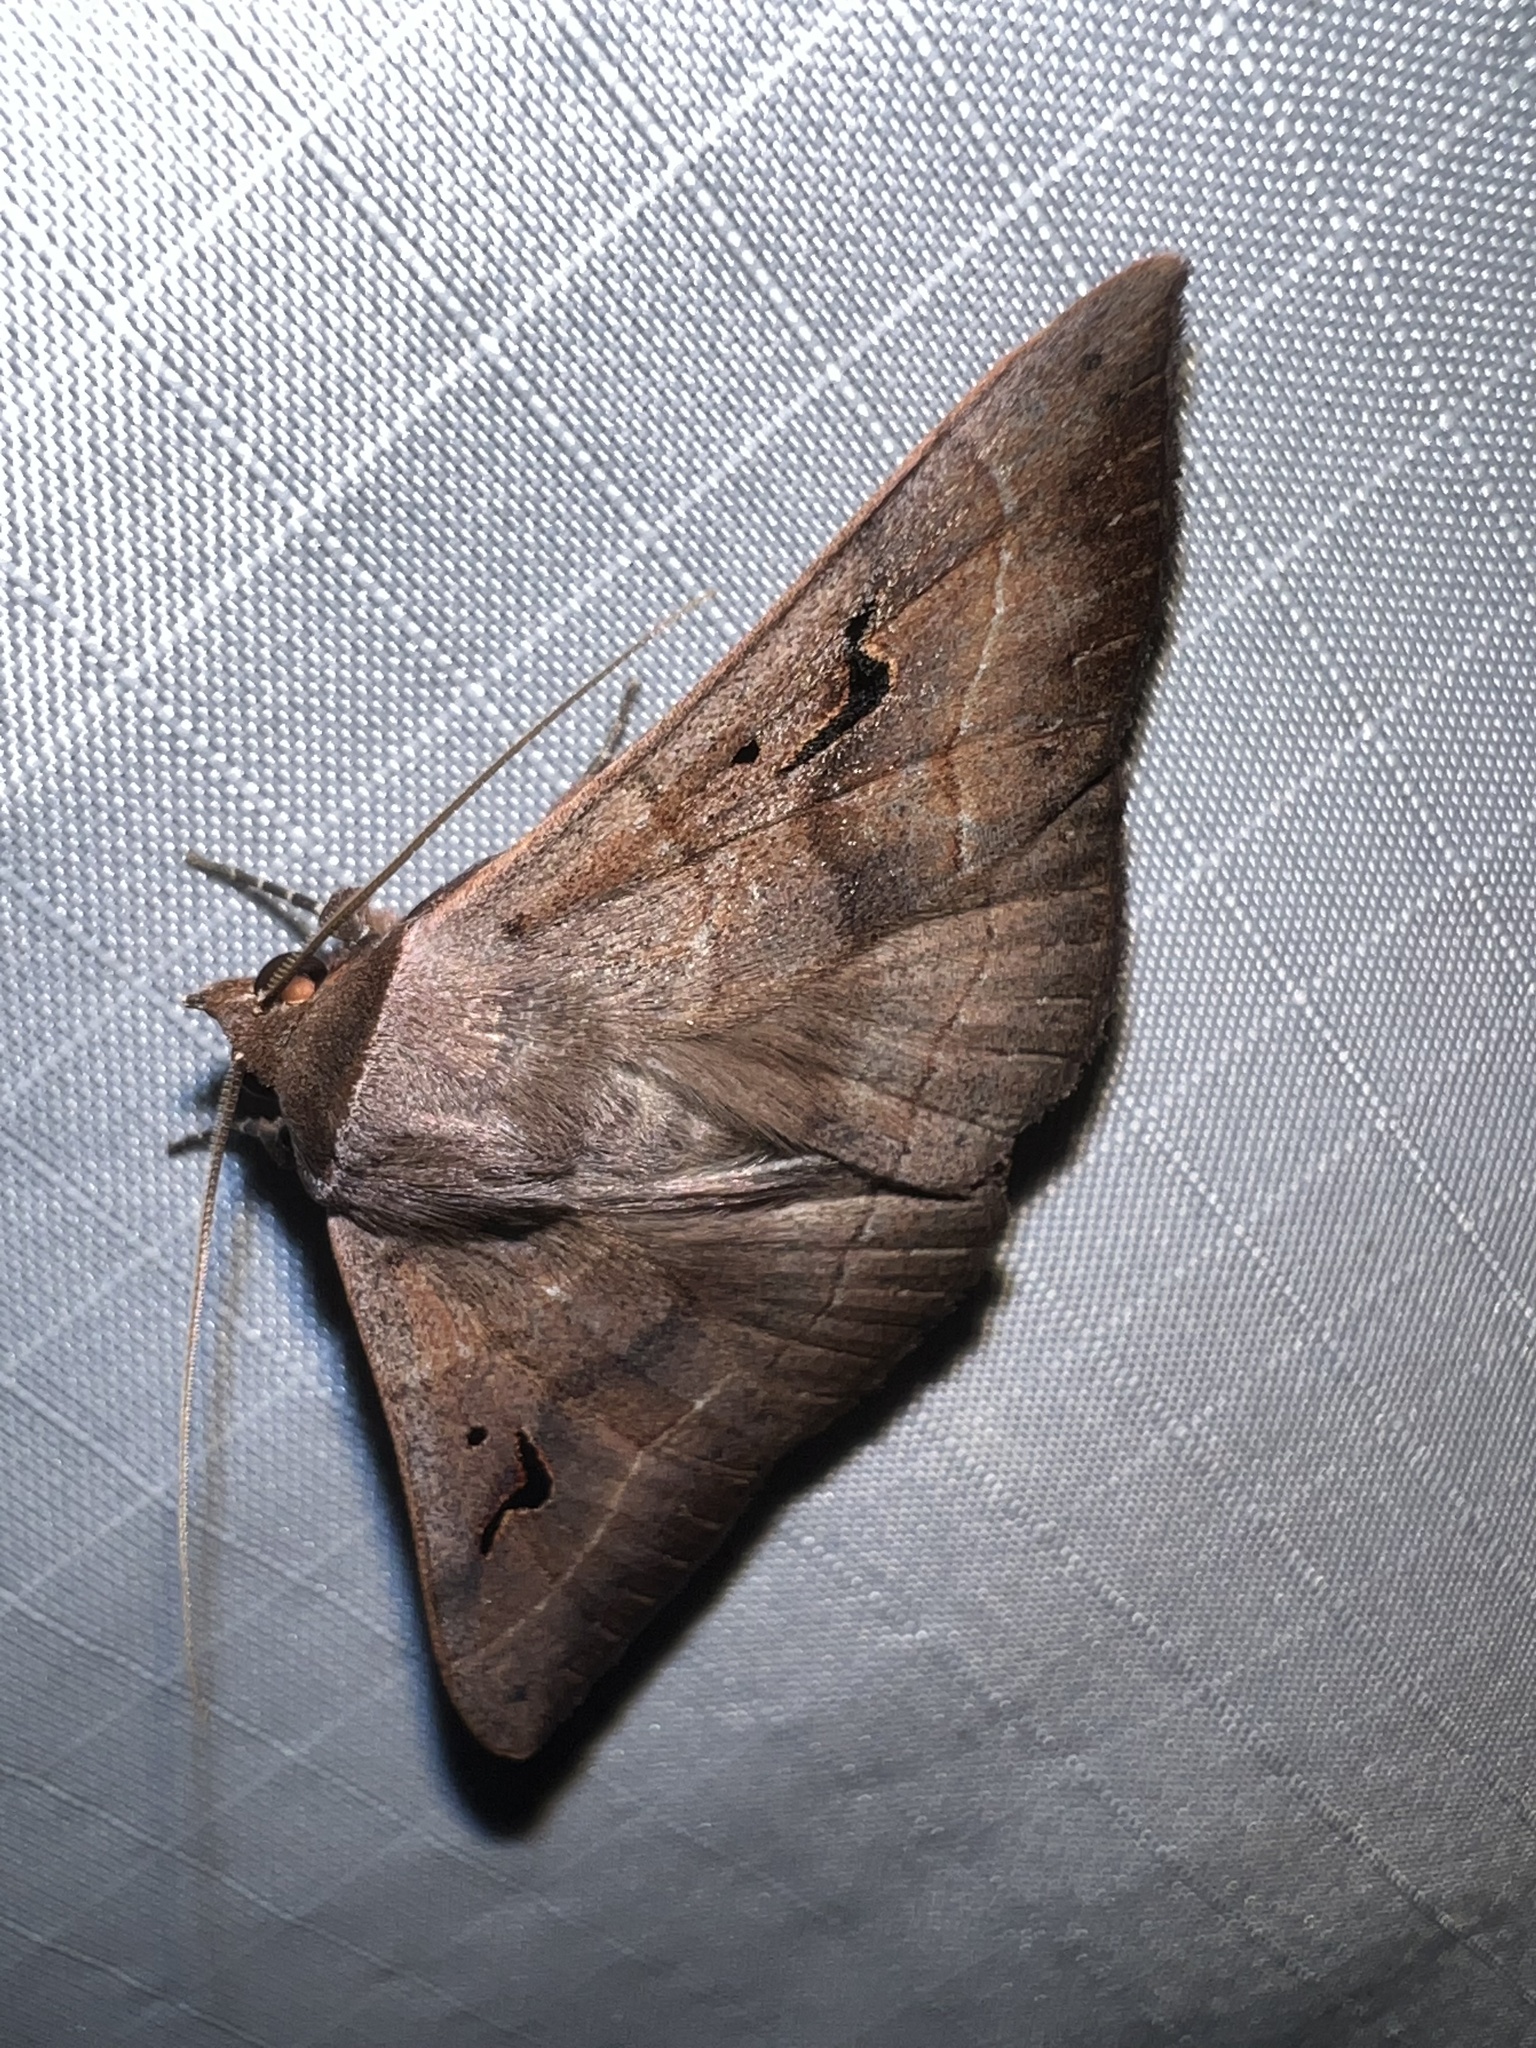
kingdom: Animalia
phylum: Arthropoda
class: Insecta
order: Lepidoptera
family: Erebidae
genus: Panopoda
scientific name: Panopoda carneicosta
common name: Brown panopoda moth
